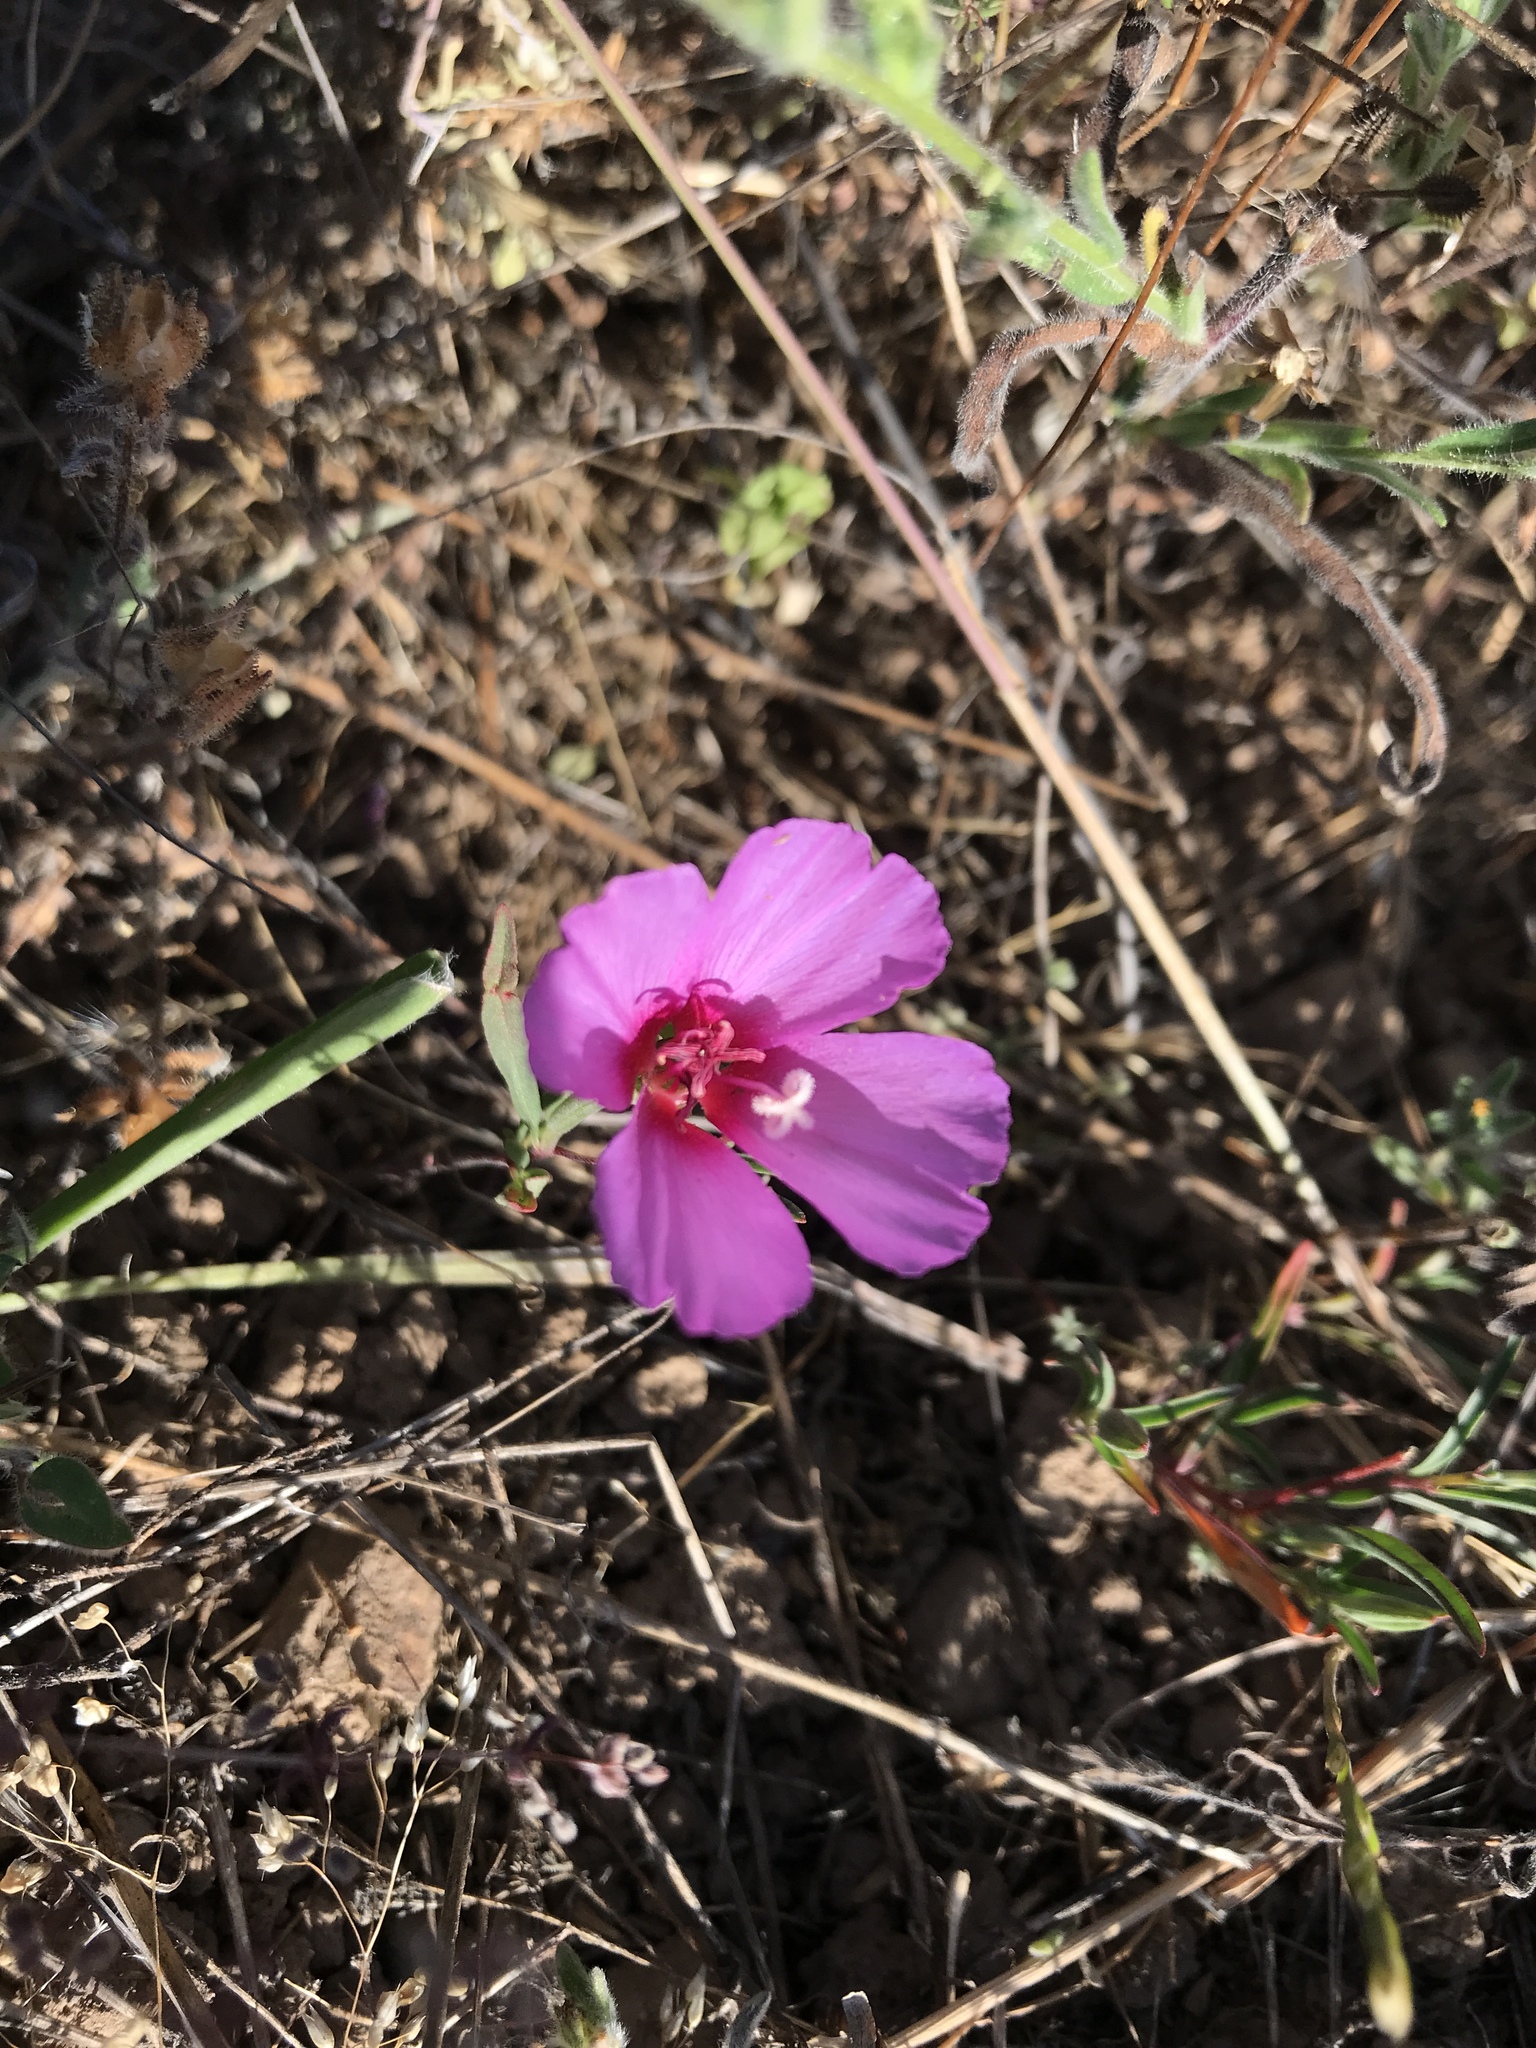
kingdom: Plantae
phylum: Tracheophyta
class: Magnoliopsida
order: Myrtales
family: Onagraceae
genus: Clarkia
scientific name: Clarkia rubicunda
